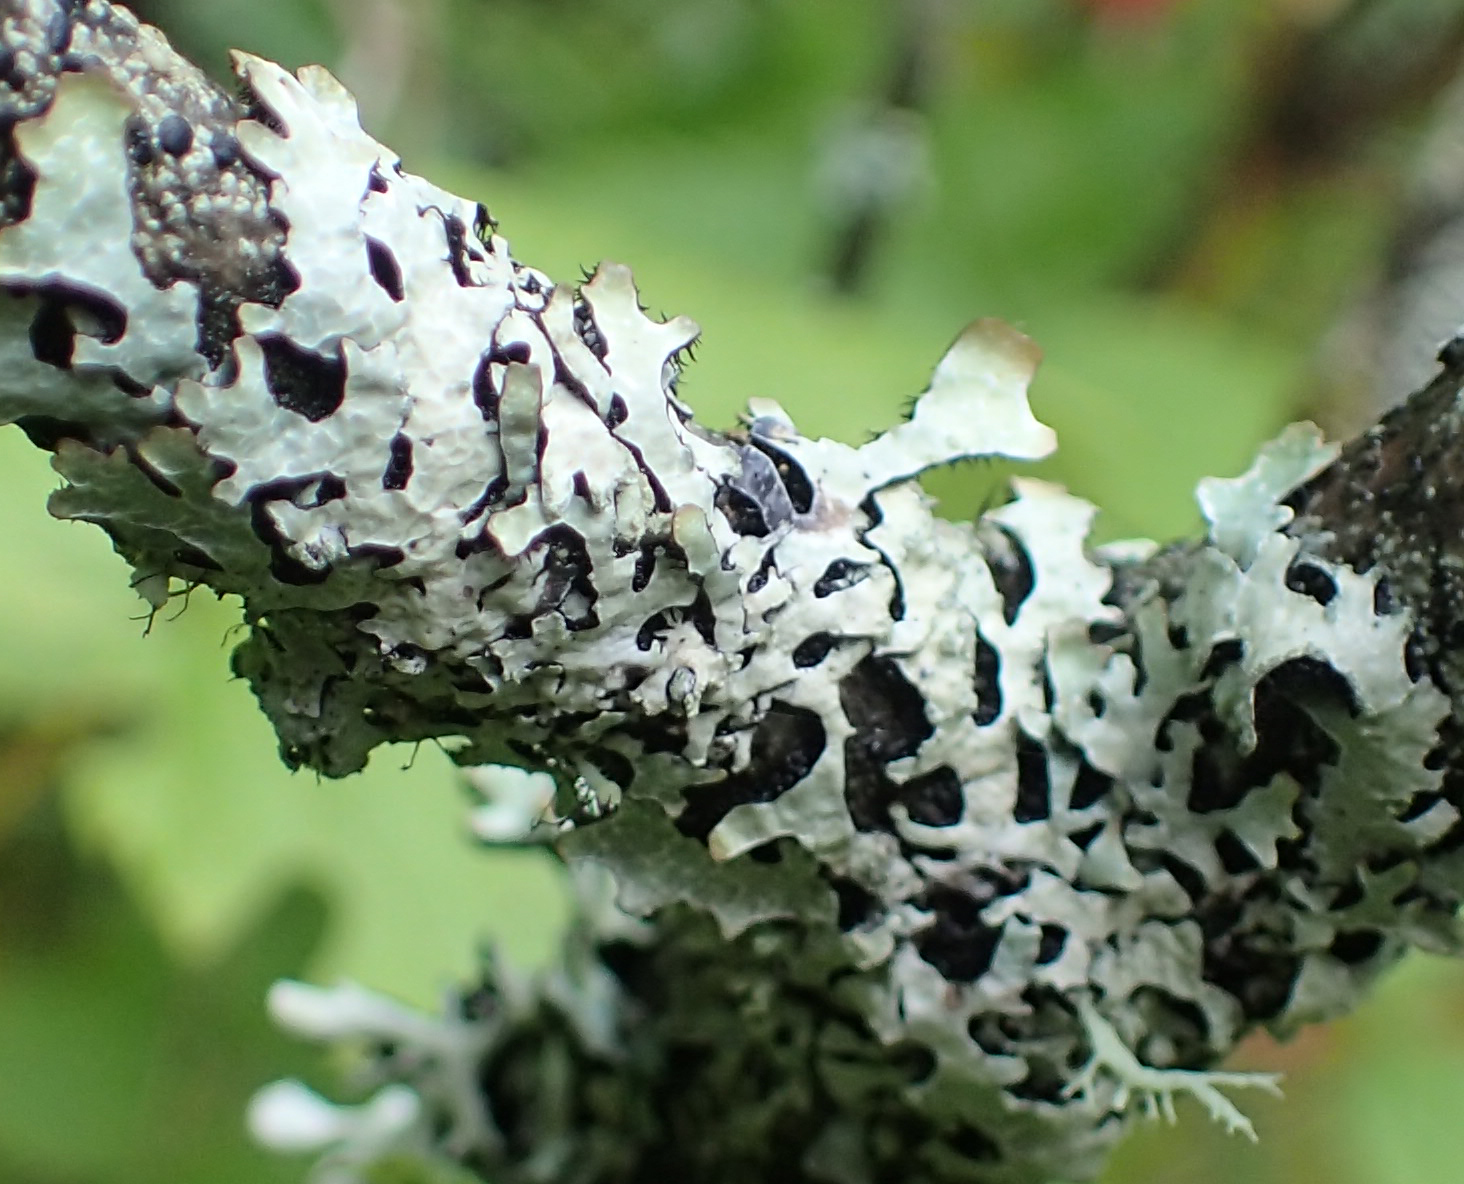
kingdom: Fungi
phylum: Ascomycota
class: Lecanoromycetes
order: Lecanorales
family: Parmeliaceae
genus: Parmelia
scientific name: Parmelia sulcata
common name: Netted shield lichen
